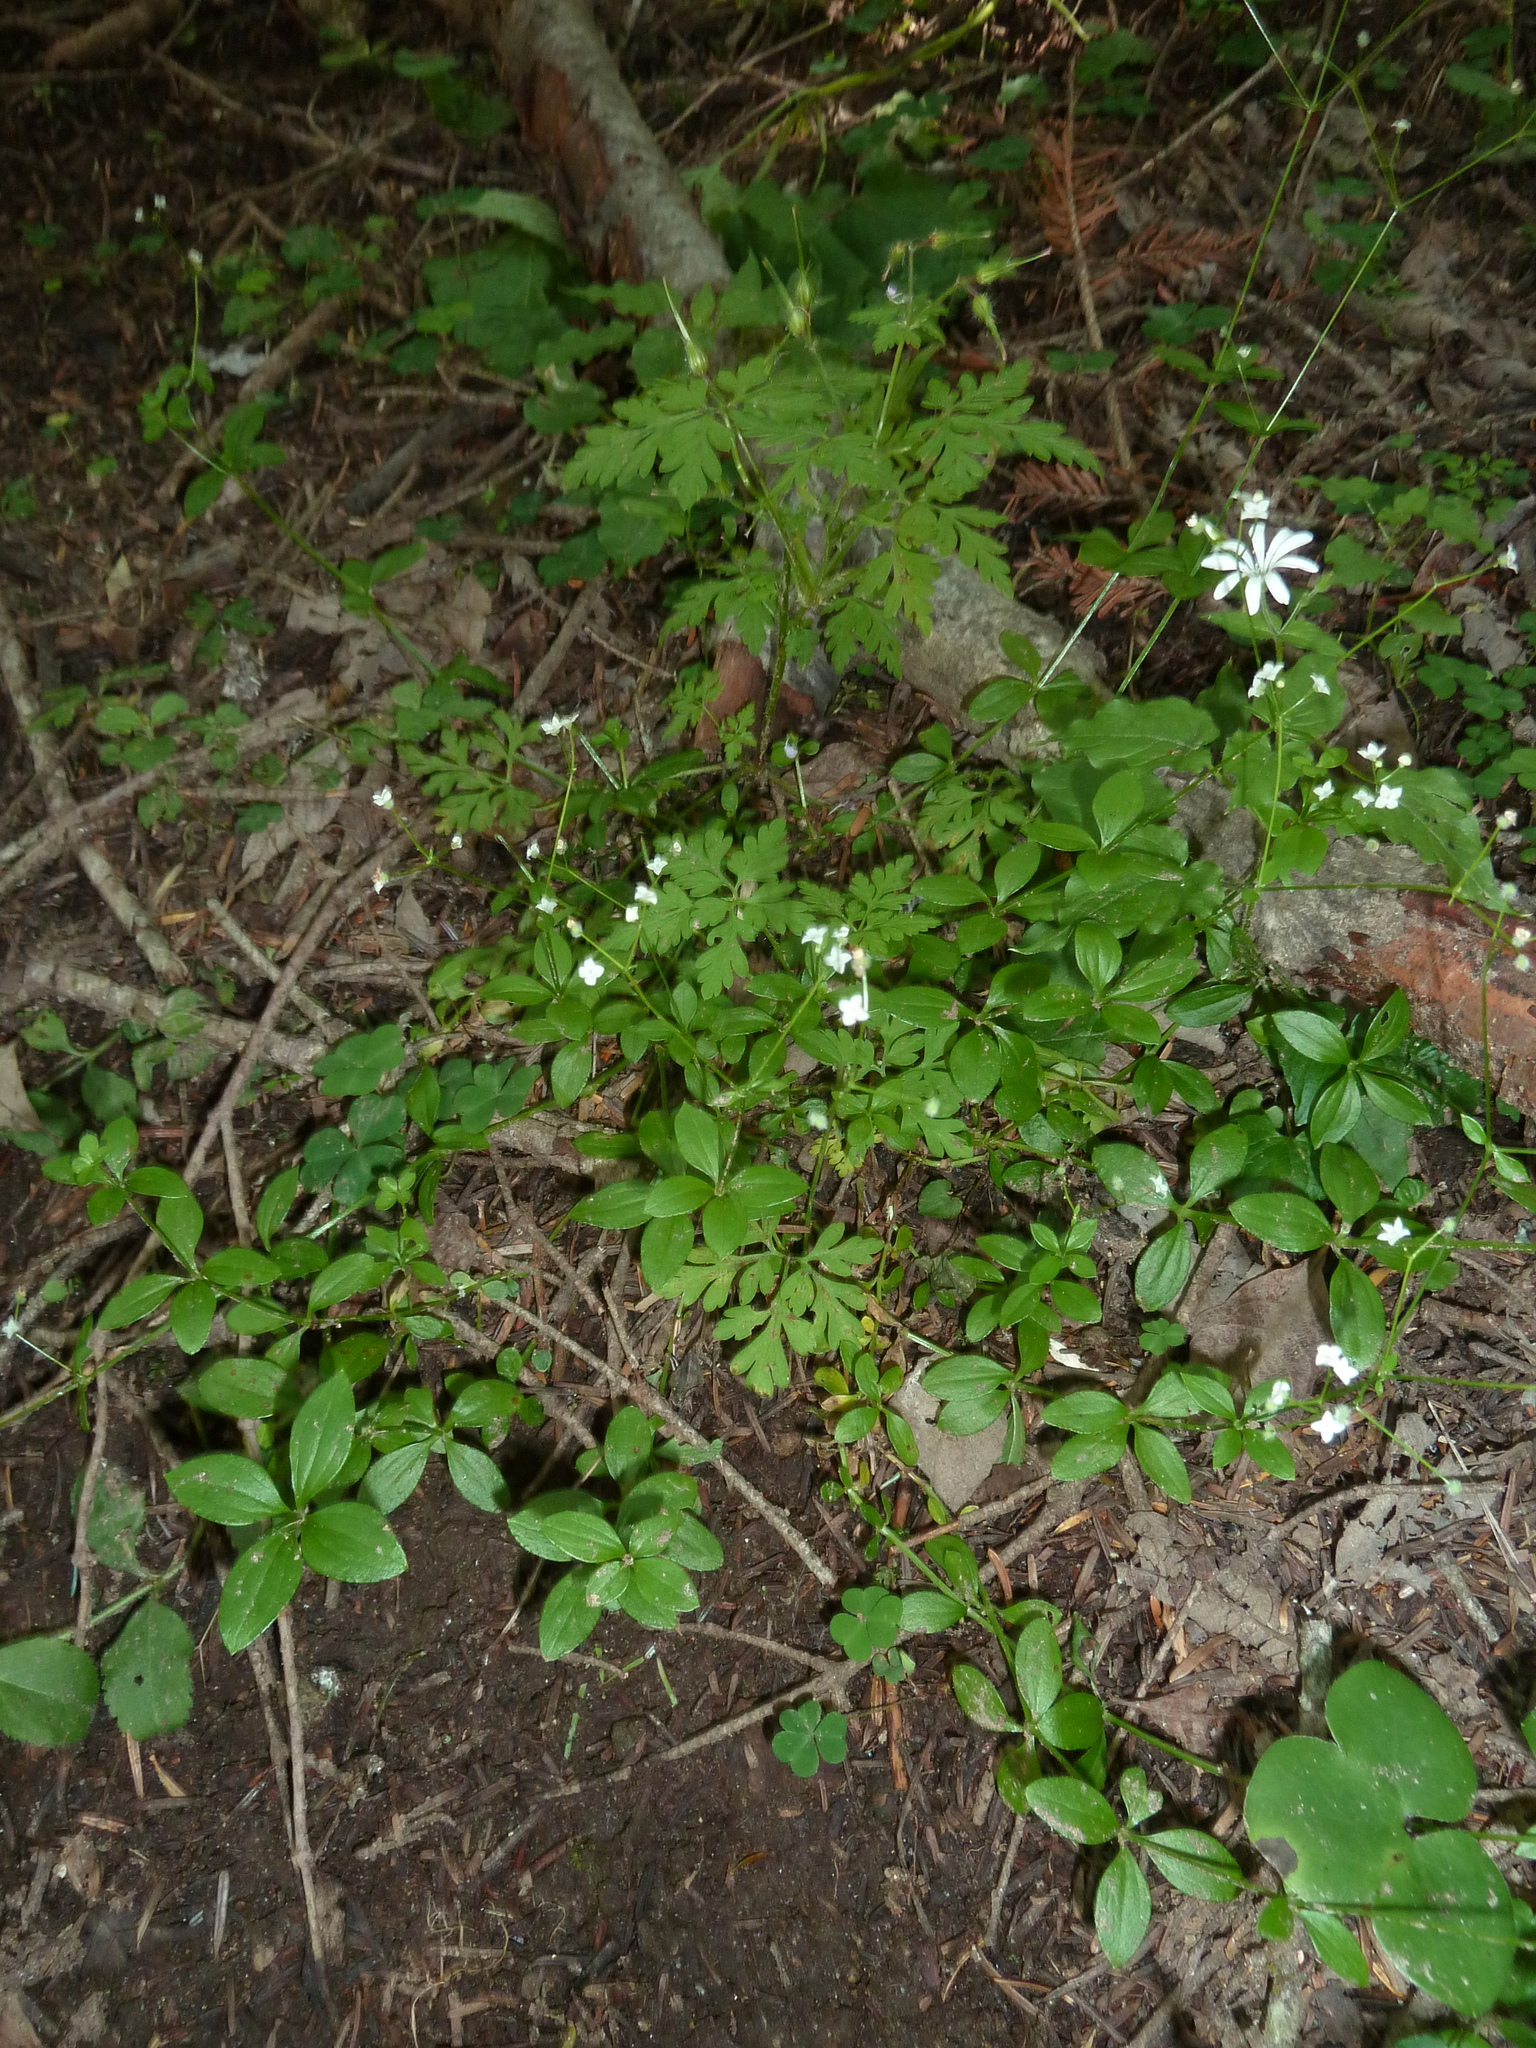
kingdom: Plantae
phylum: Tracheophyta
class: Magnoliopsida
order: Gentianales
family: Rubiaceae
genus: Galium
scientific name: Galium rotundifolium
